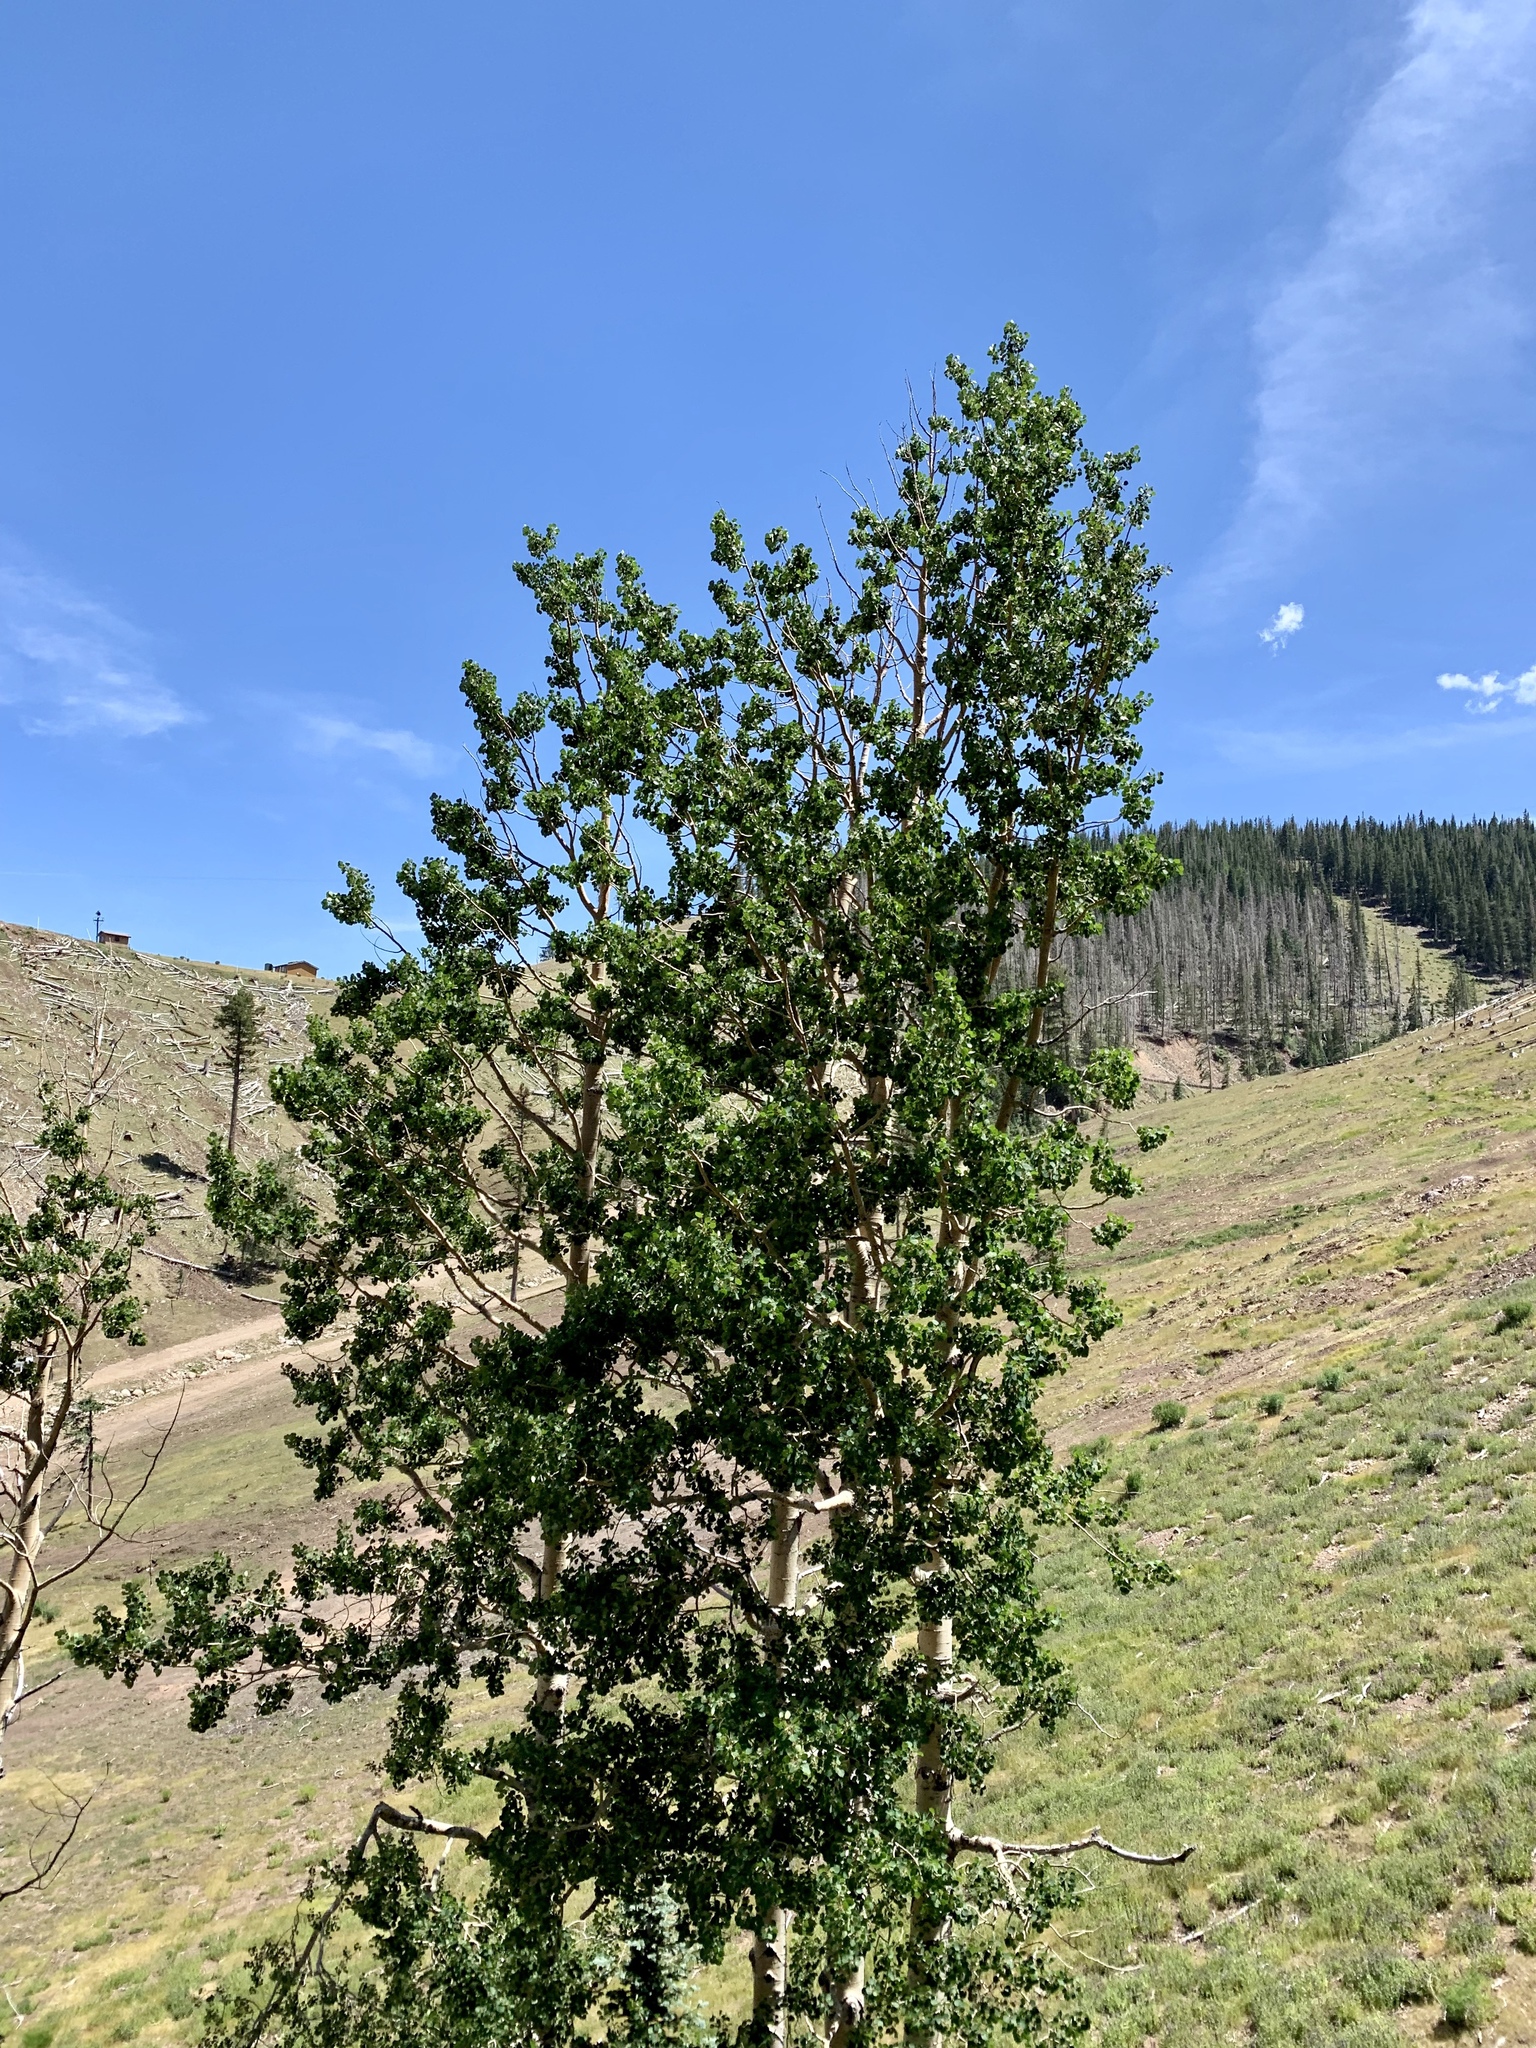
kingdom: Plantae
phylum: Tracheophyta
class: Magnoliopsida
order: Malpighiales
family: Salicaceae
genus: Populus
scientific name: Populus tremuloides
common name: Quaking aspen
